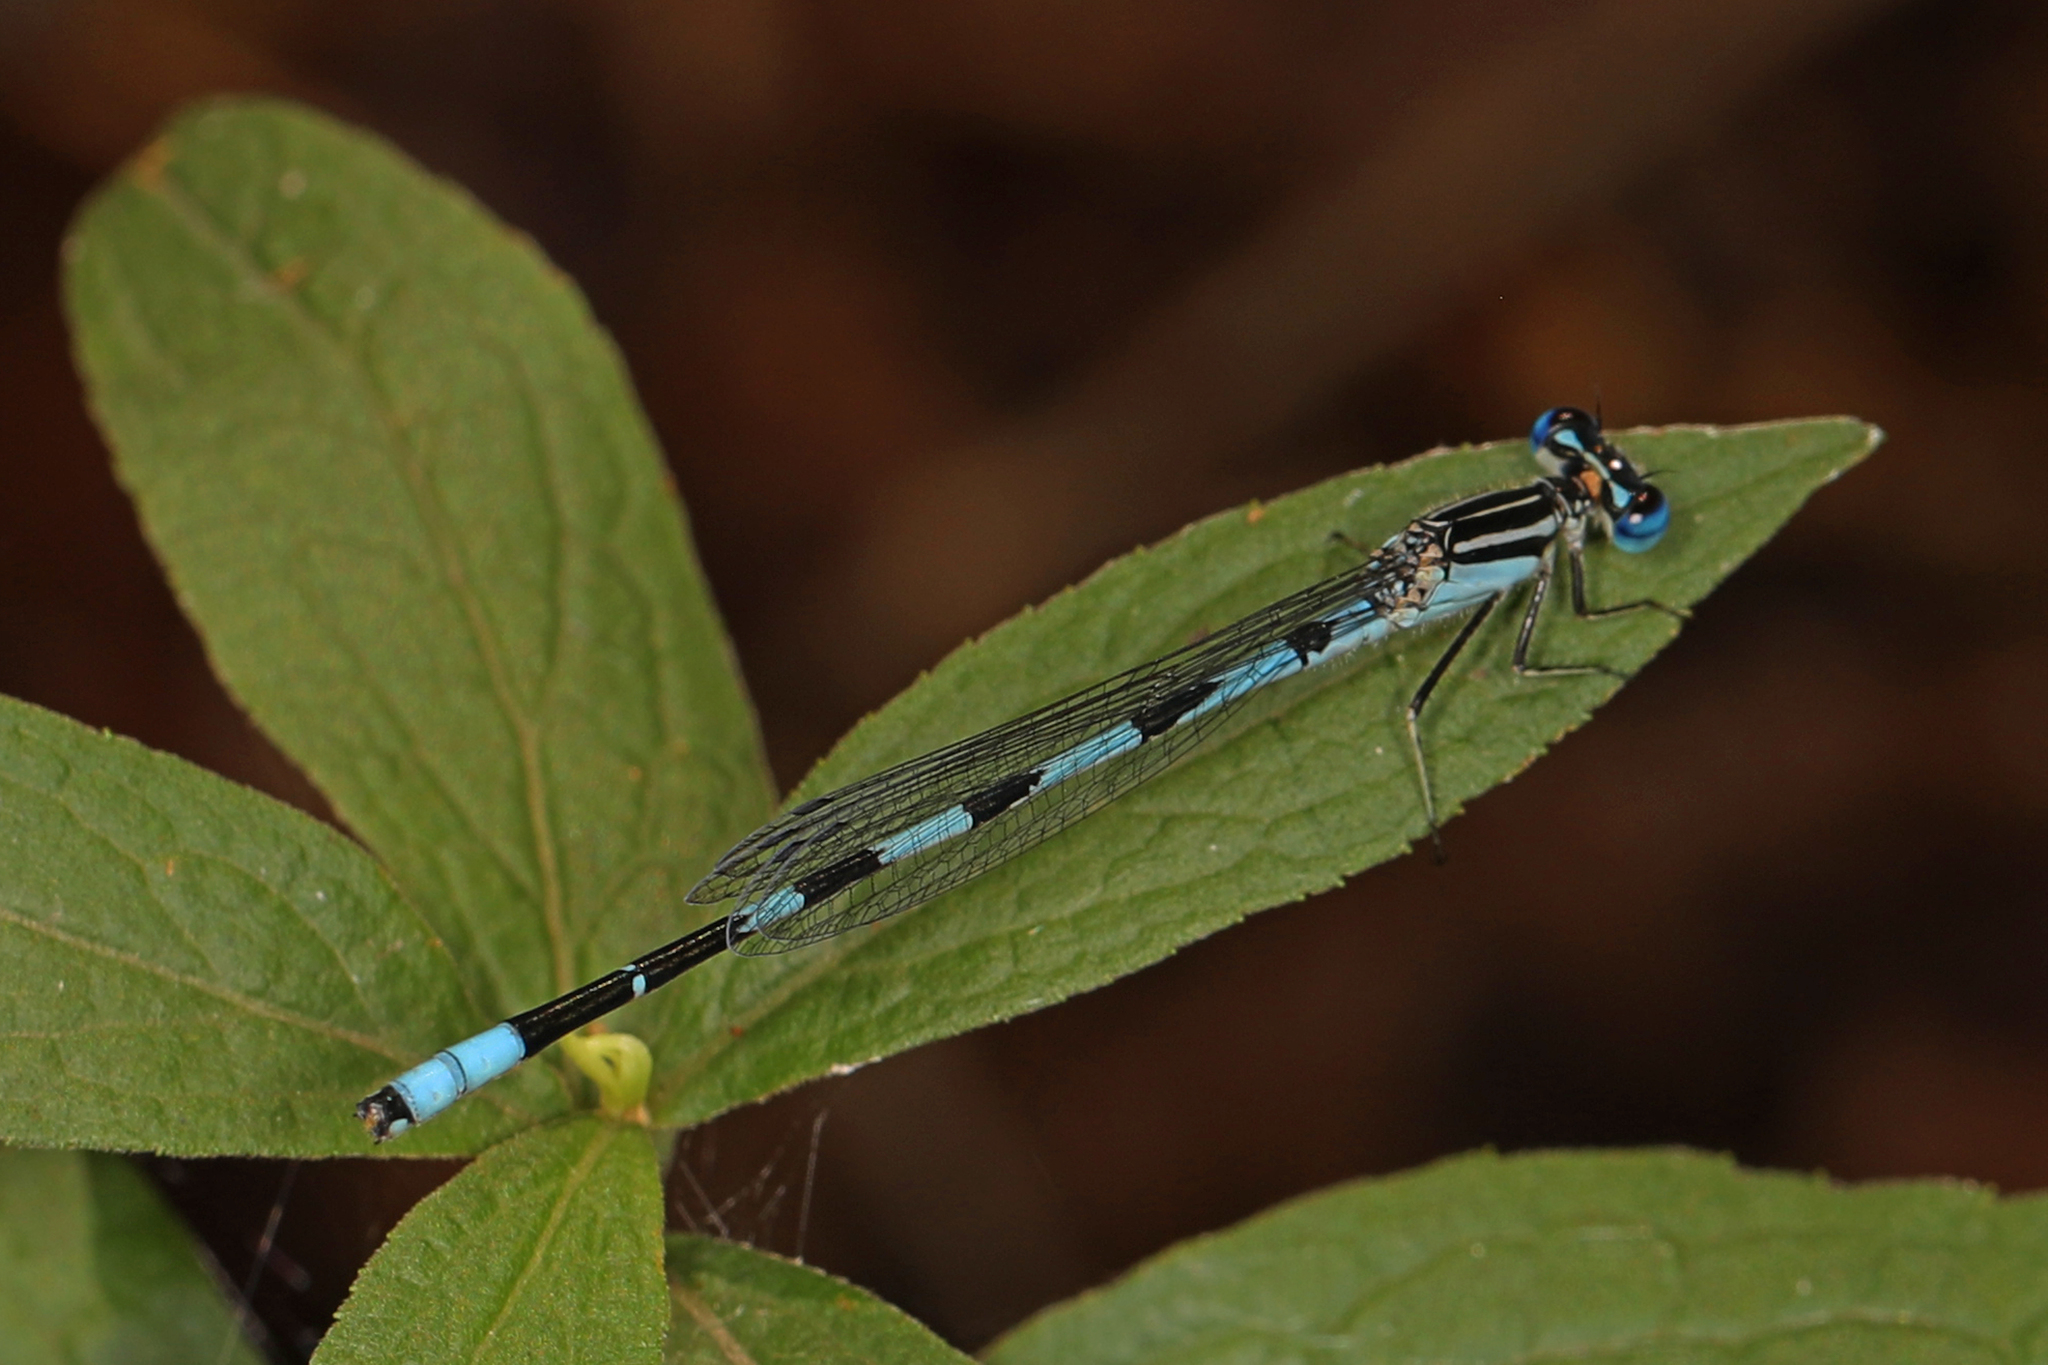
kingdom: Animalia
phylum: Arthropoda
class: Insecta
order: Odonata
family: Coenagrionidae
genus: Enallagma
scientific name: Enallagma durum
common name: Big bluet
